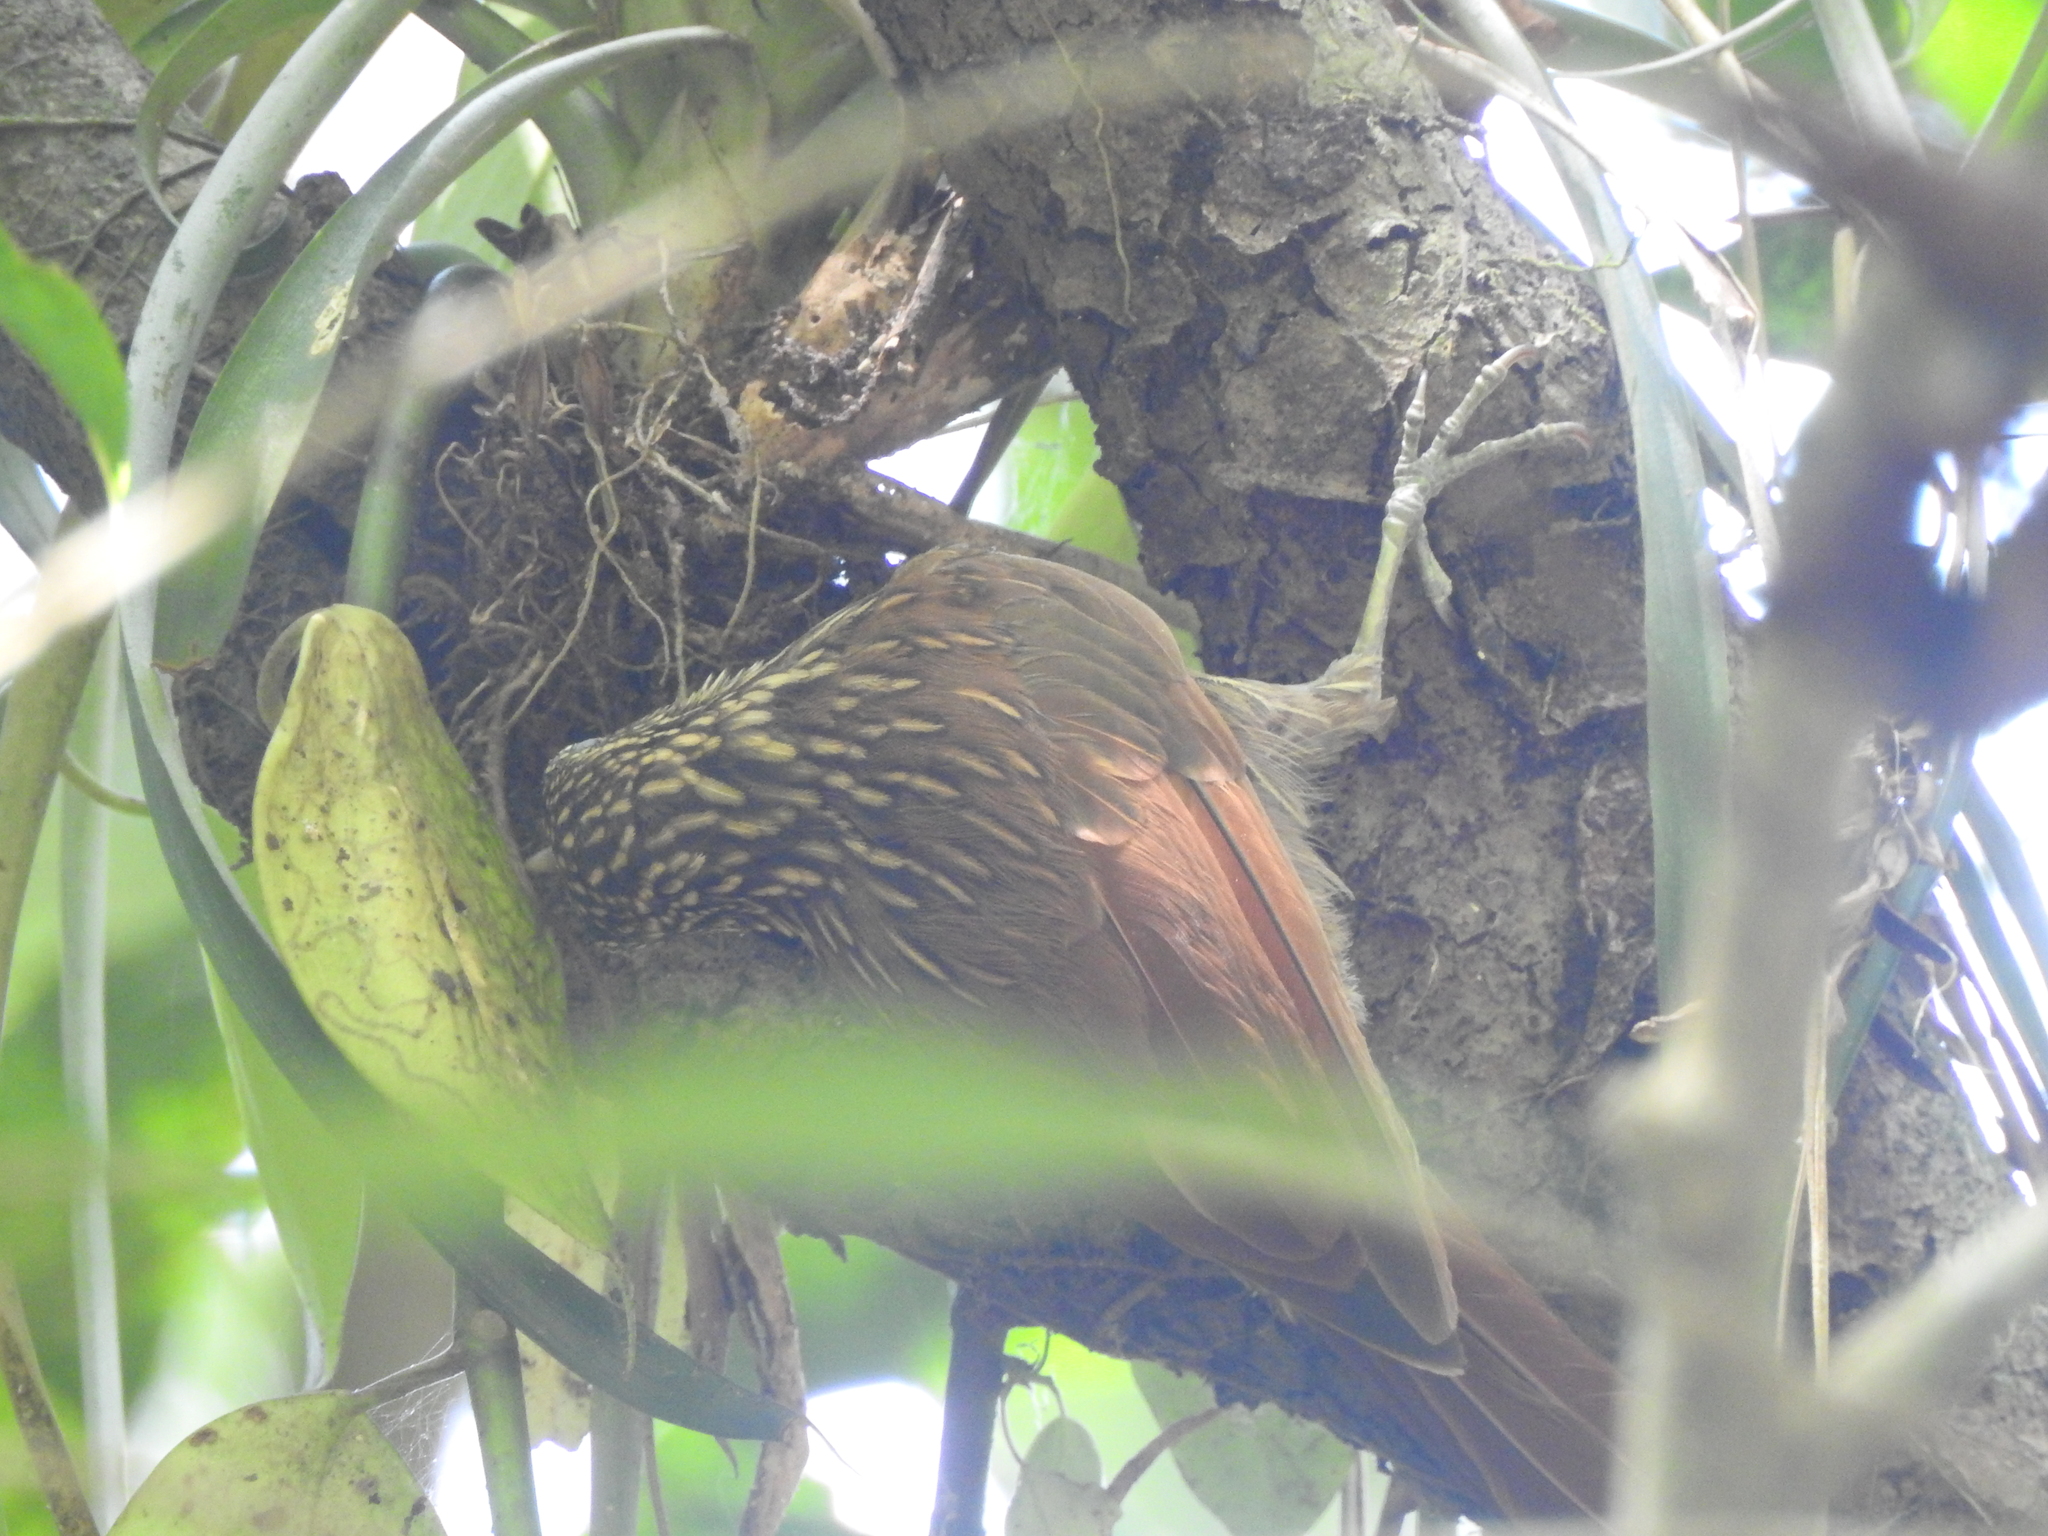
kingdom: Animalia
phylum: Chordata
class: Aves
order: Passeriformes
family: Furnariidae
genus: Xiphorhynchus
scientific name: Xiphorhynchus flavigaster
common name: Ivory-billed woodcreeper
